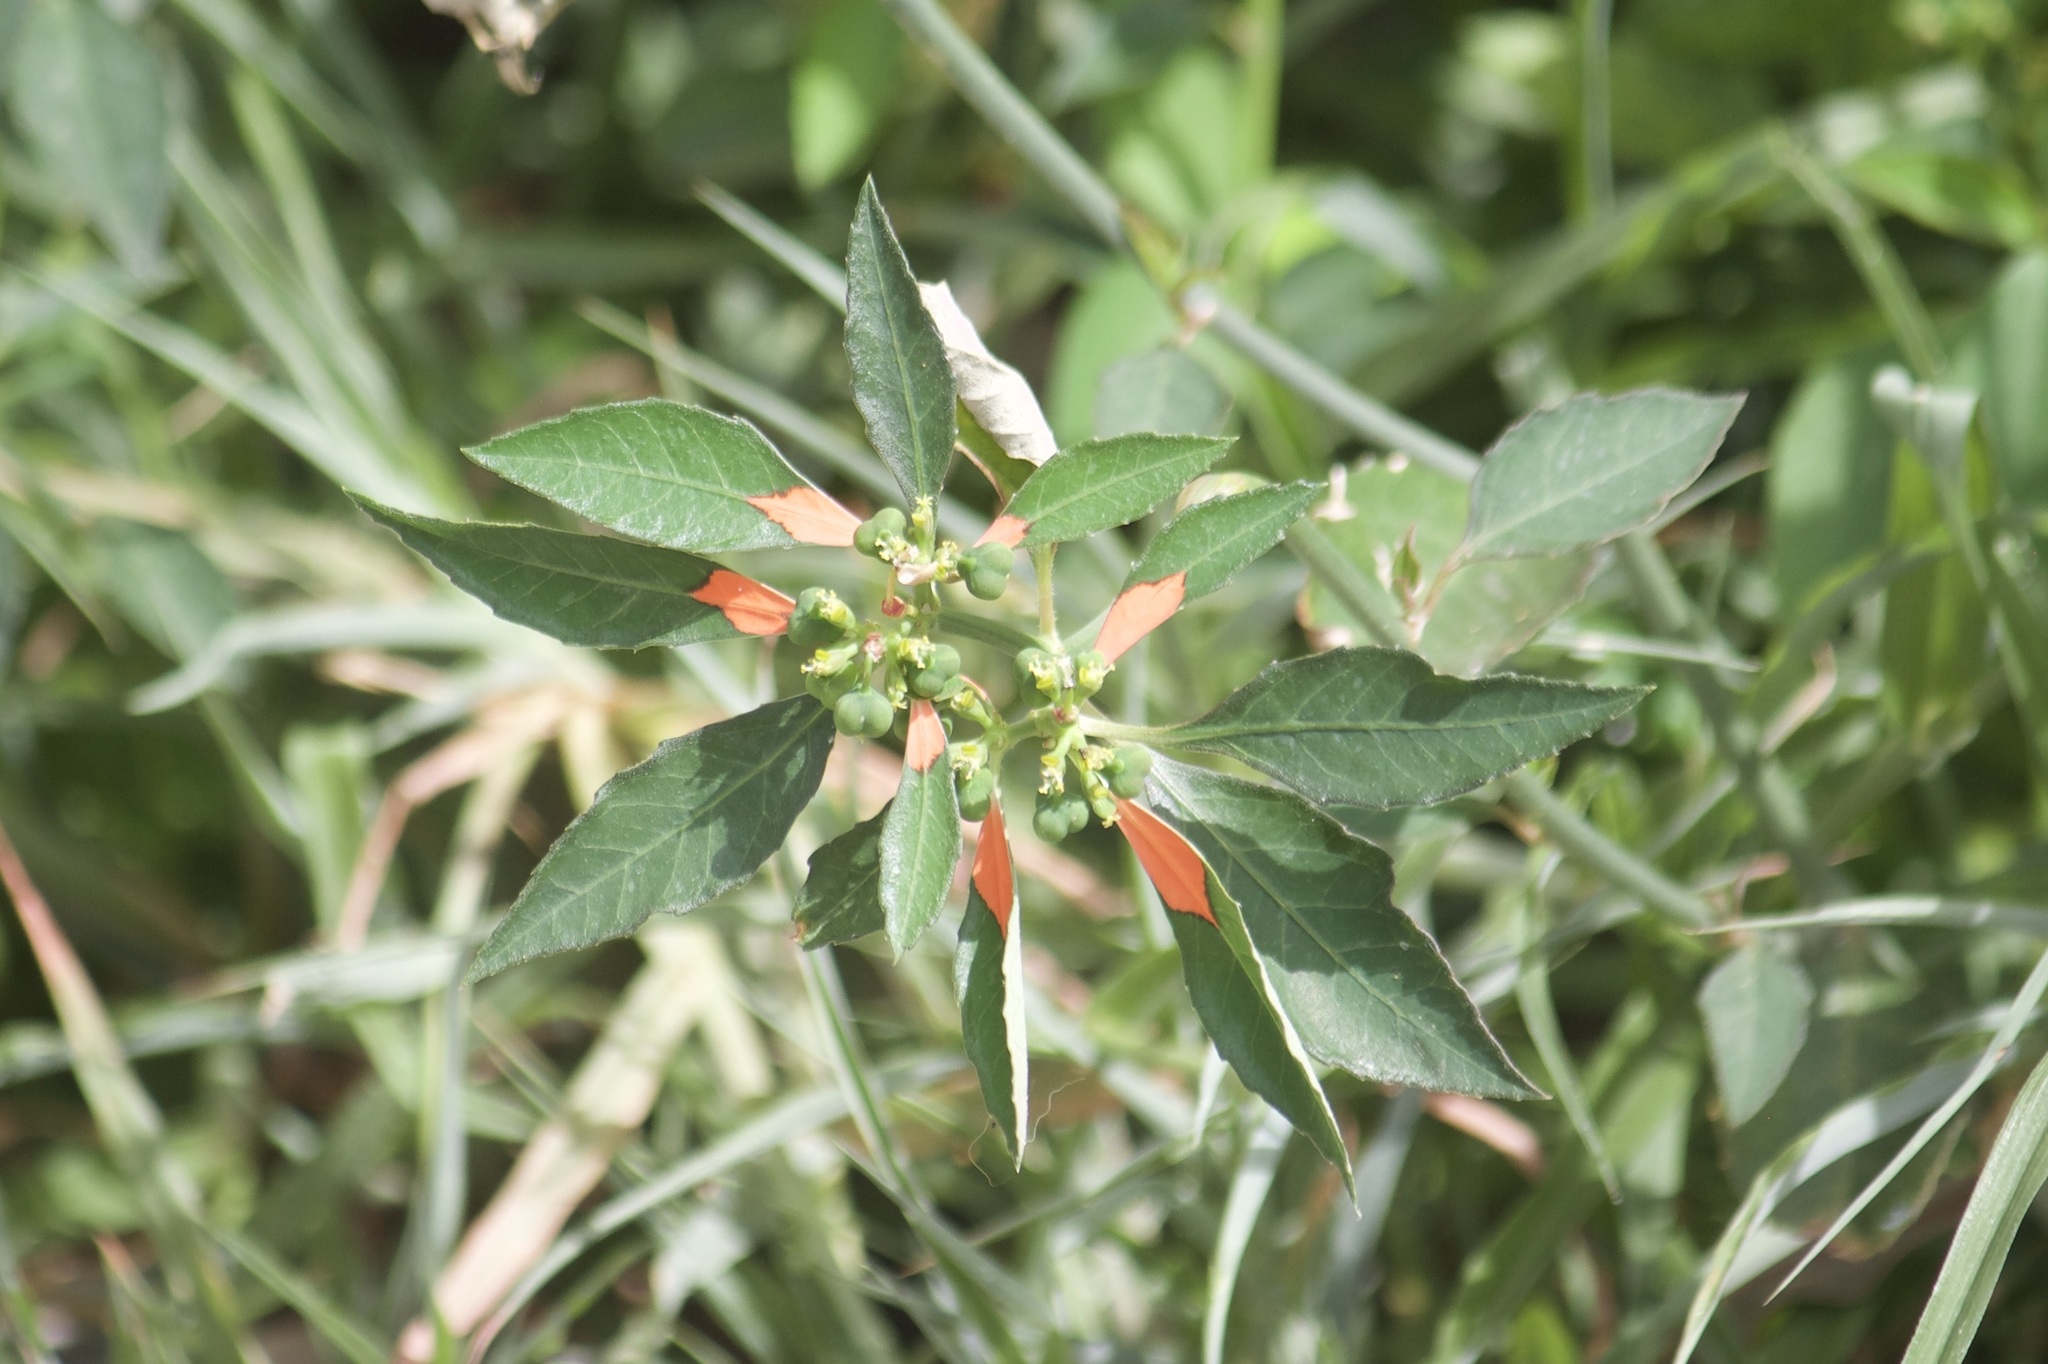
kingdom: Plantae
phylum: Tracheophyta
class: Magnoliopsida
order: Malpighiales
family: Euphorbiaceae
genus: Euphorbia
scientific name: Euphorbia heterophylla
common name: Mexican fireplant
